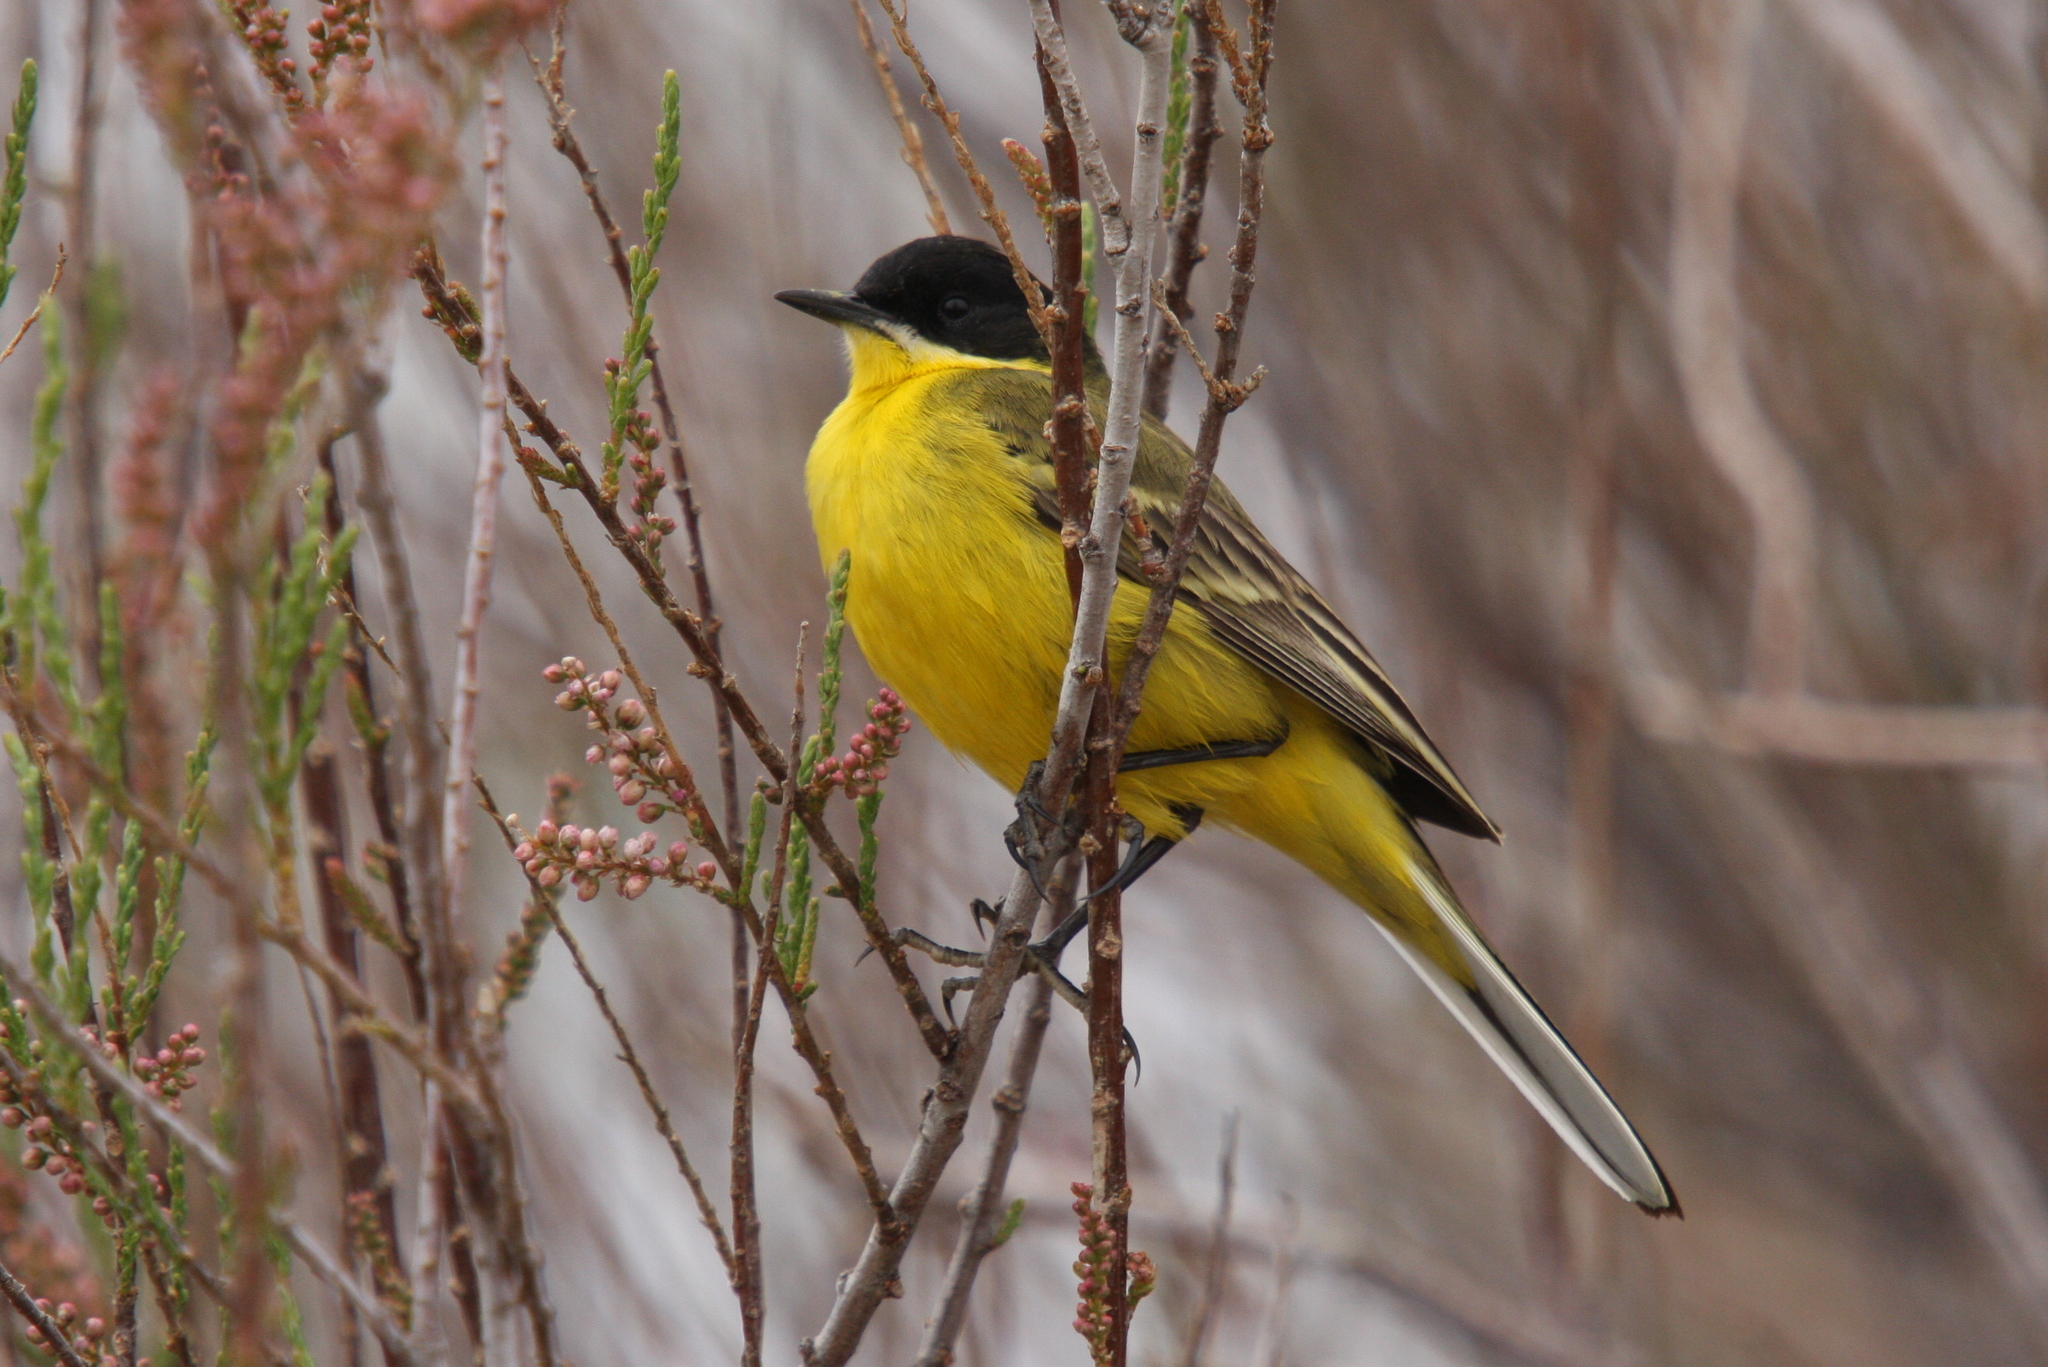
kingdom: Animalia
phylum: Chordata
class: Aves
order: Passeriformes
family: Motacillidae
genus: Motacilla
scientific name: Motacilla flava
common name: Western yellow wagtail
